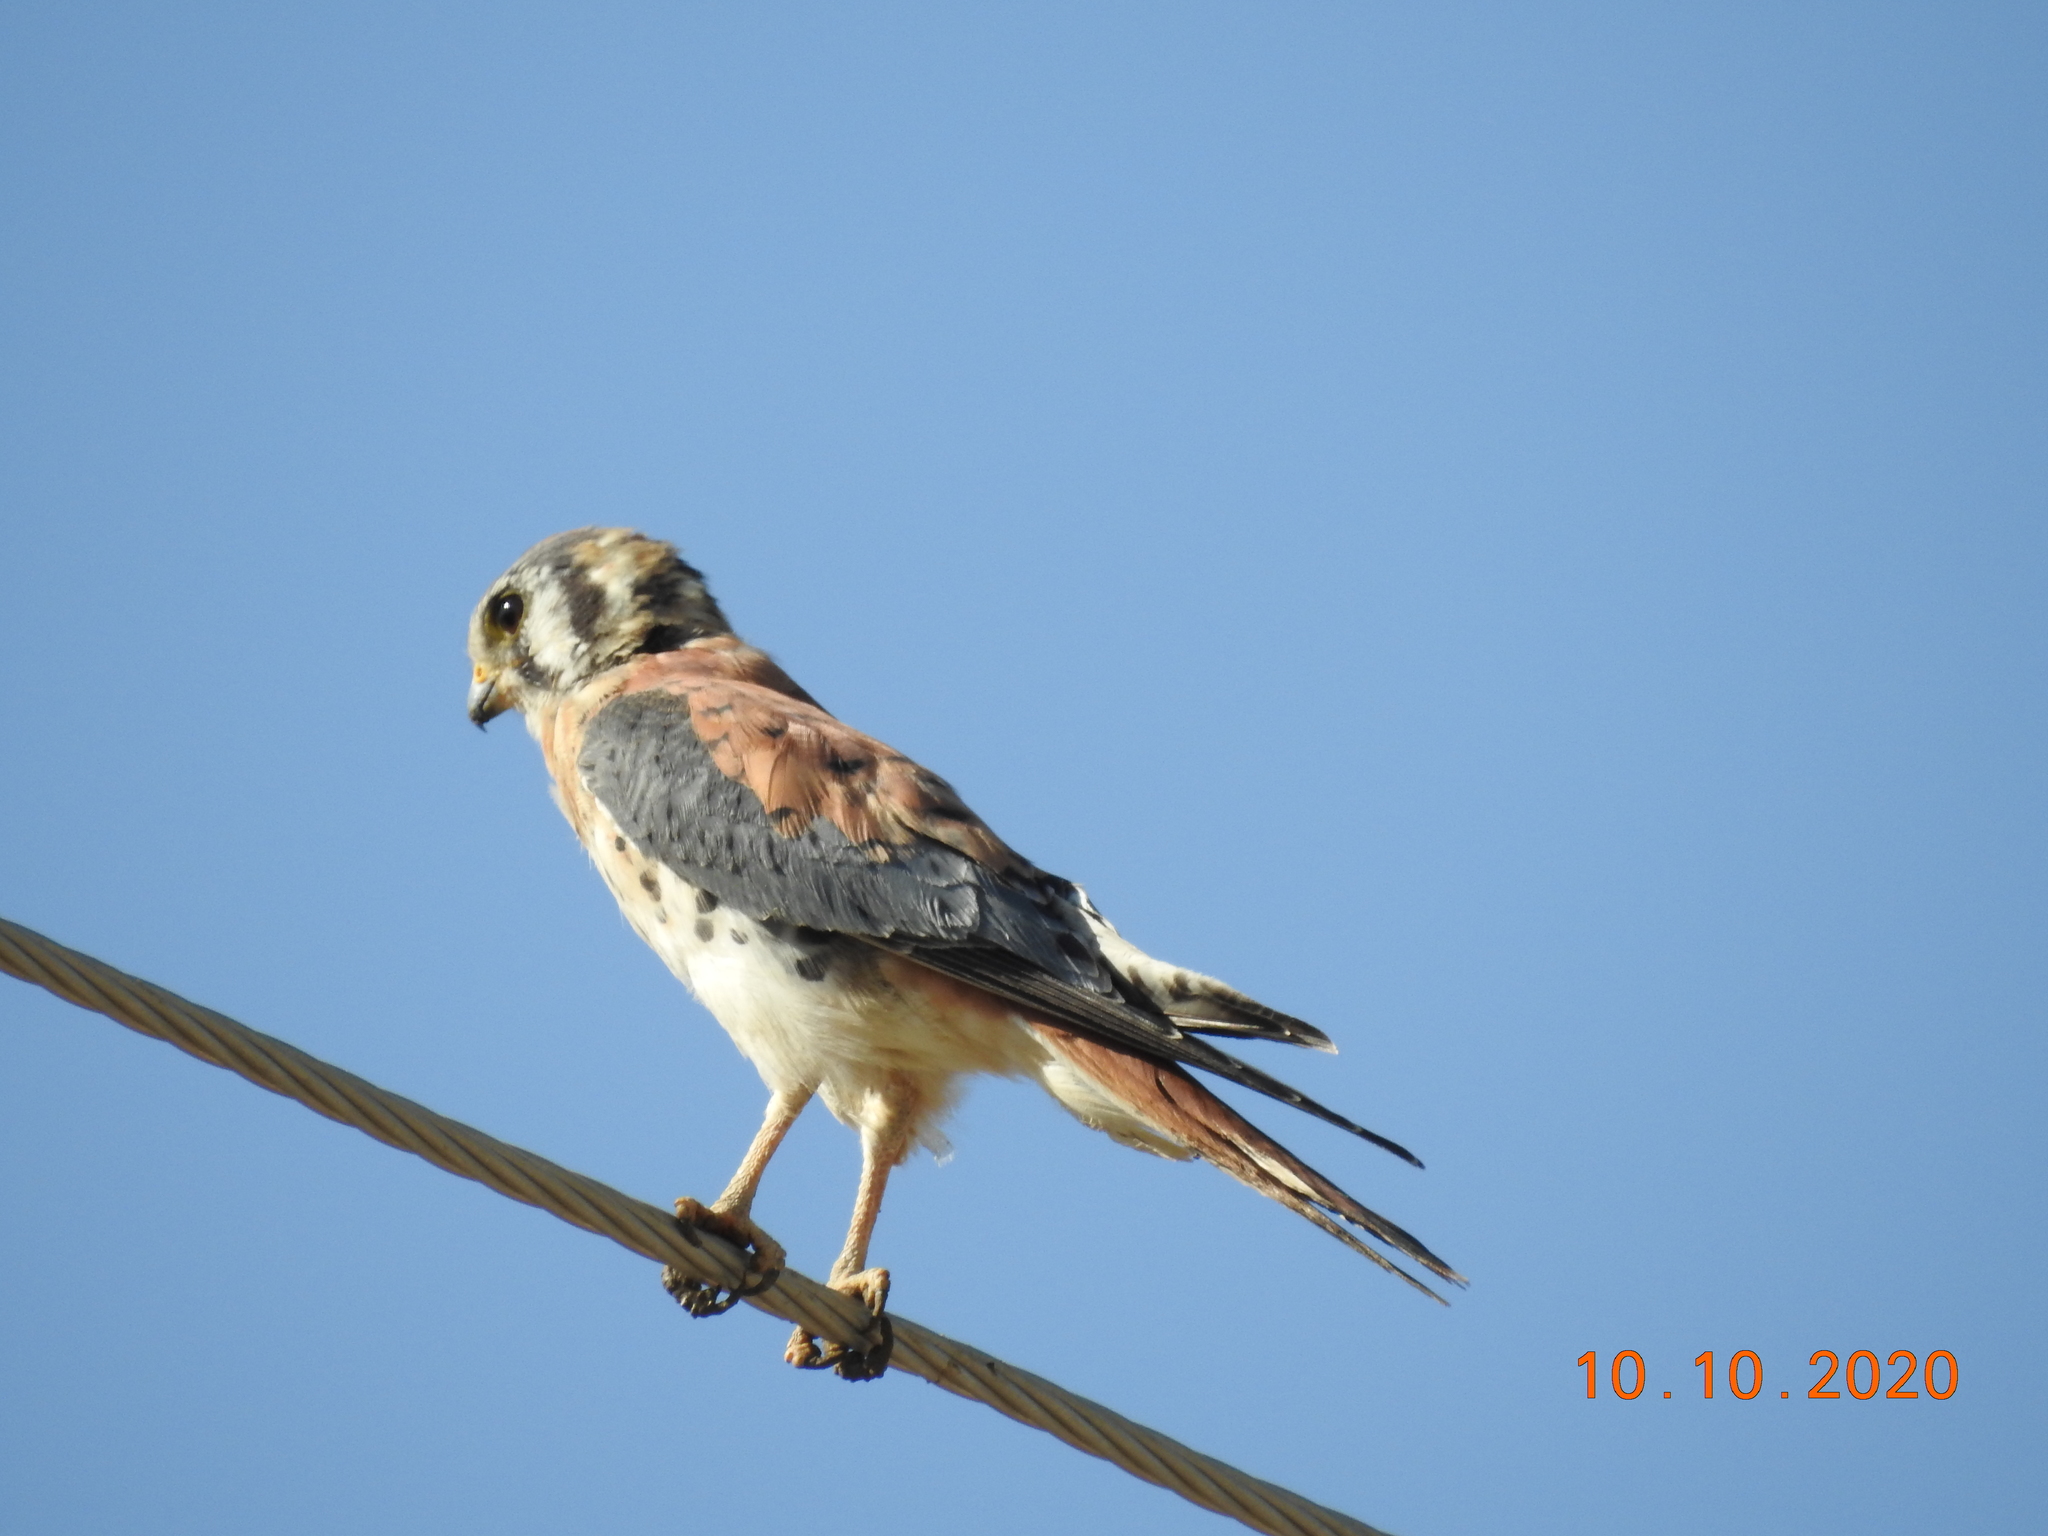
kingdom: Animalia
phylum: Chordata
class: Aves
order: Falconiformes
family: Falconidae
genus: Falco
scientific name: Falco sparverius
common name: American kestrel
